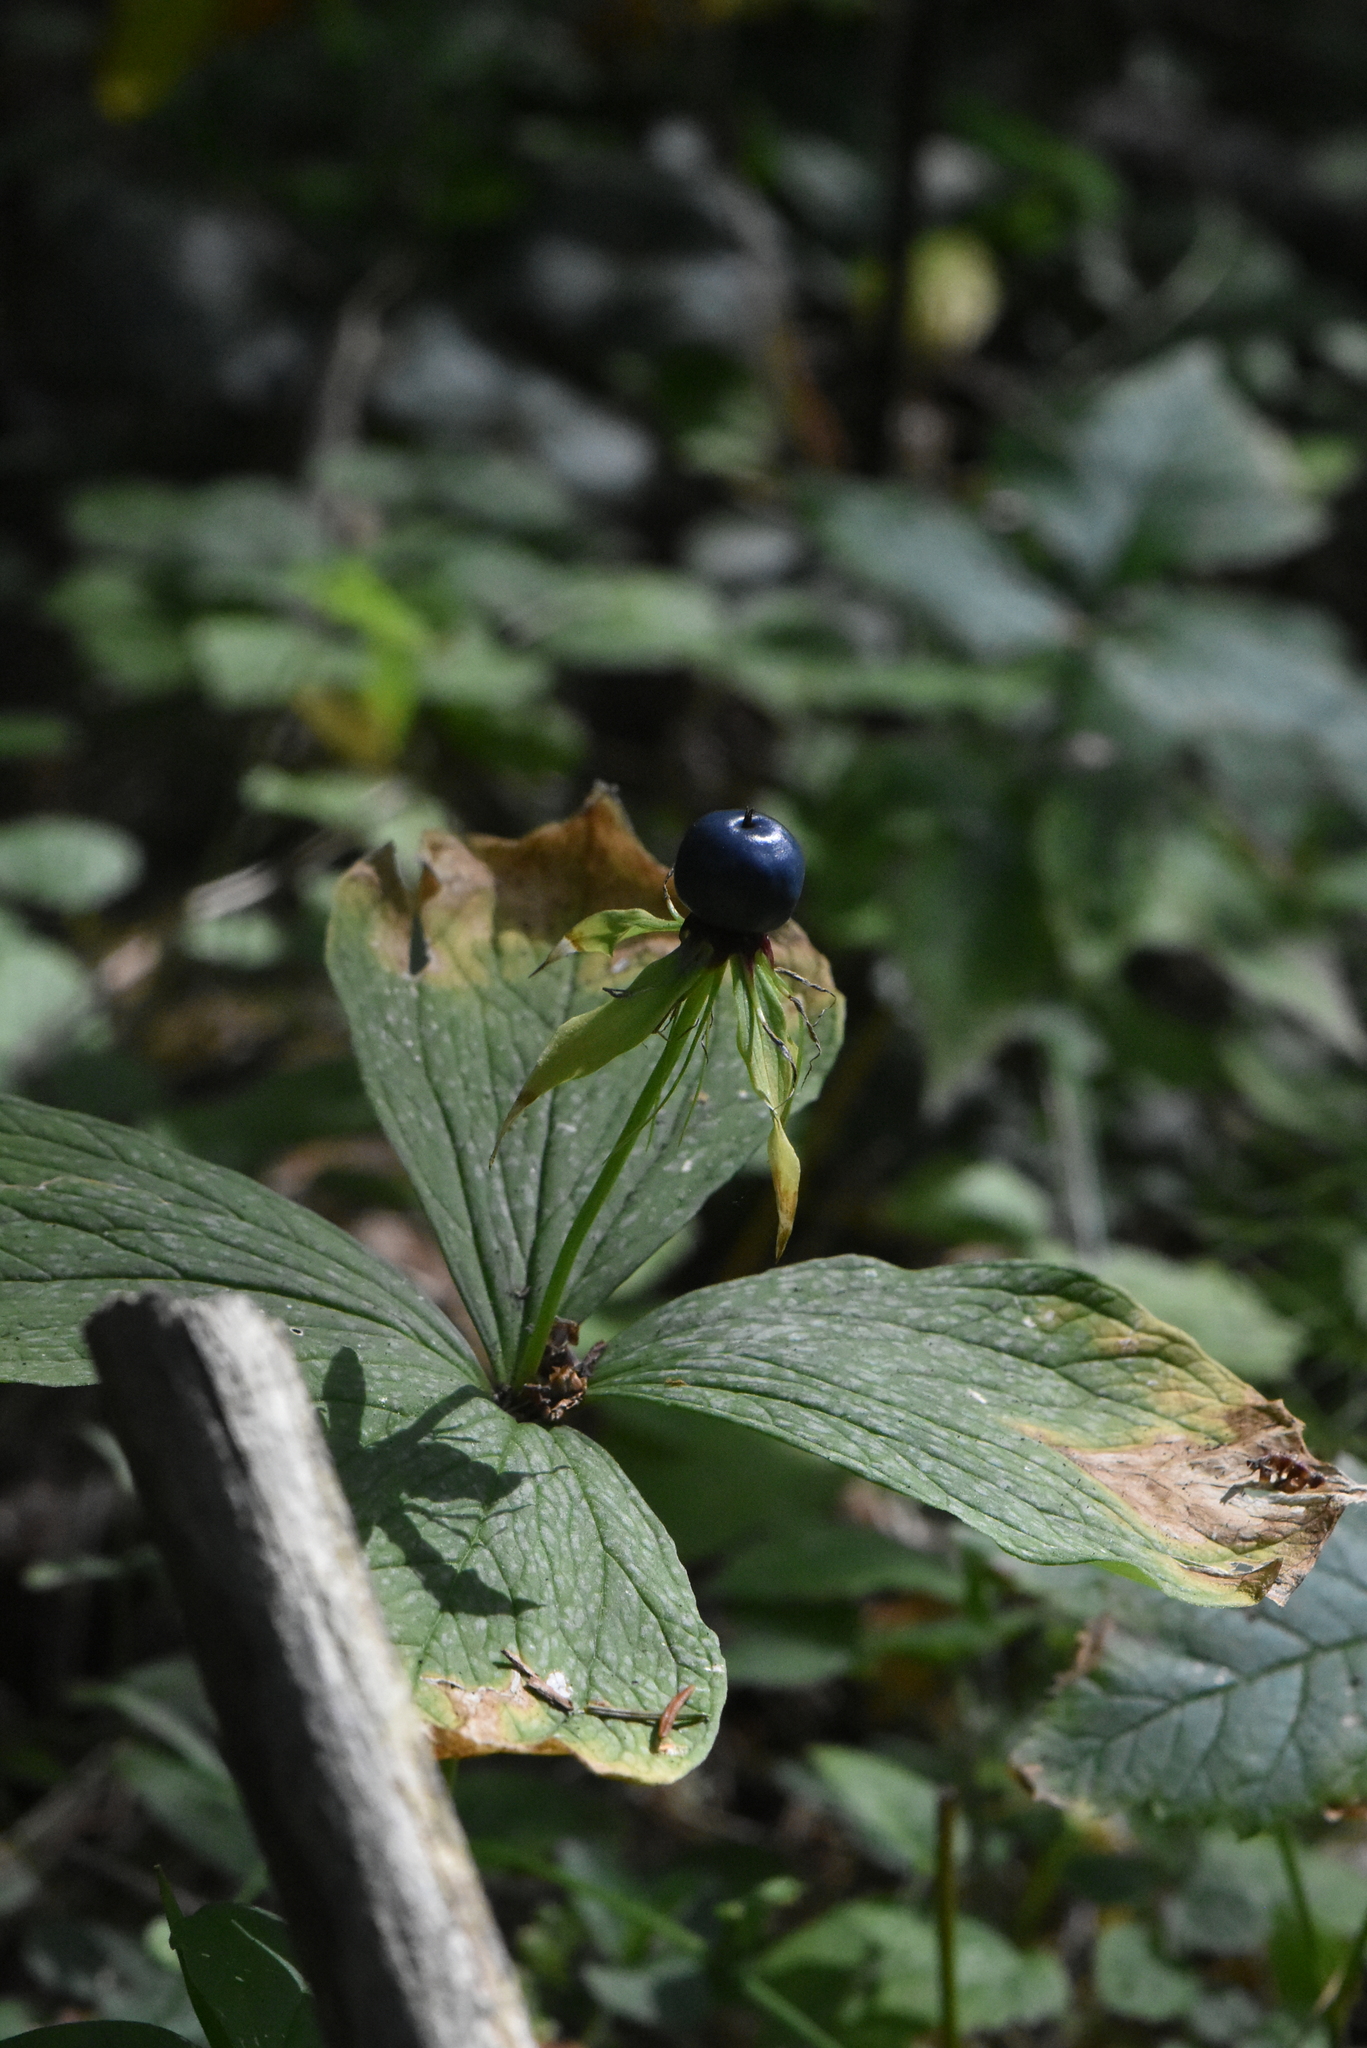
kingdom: Plantae
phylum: Tracheophyta
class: Liliopsida
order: Liliales
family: Melanthiaceae
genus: Paris
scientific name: Paris quadrifolia
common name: Herb-paris
